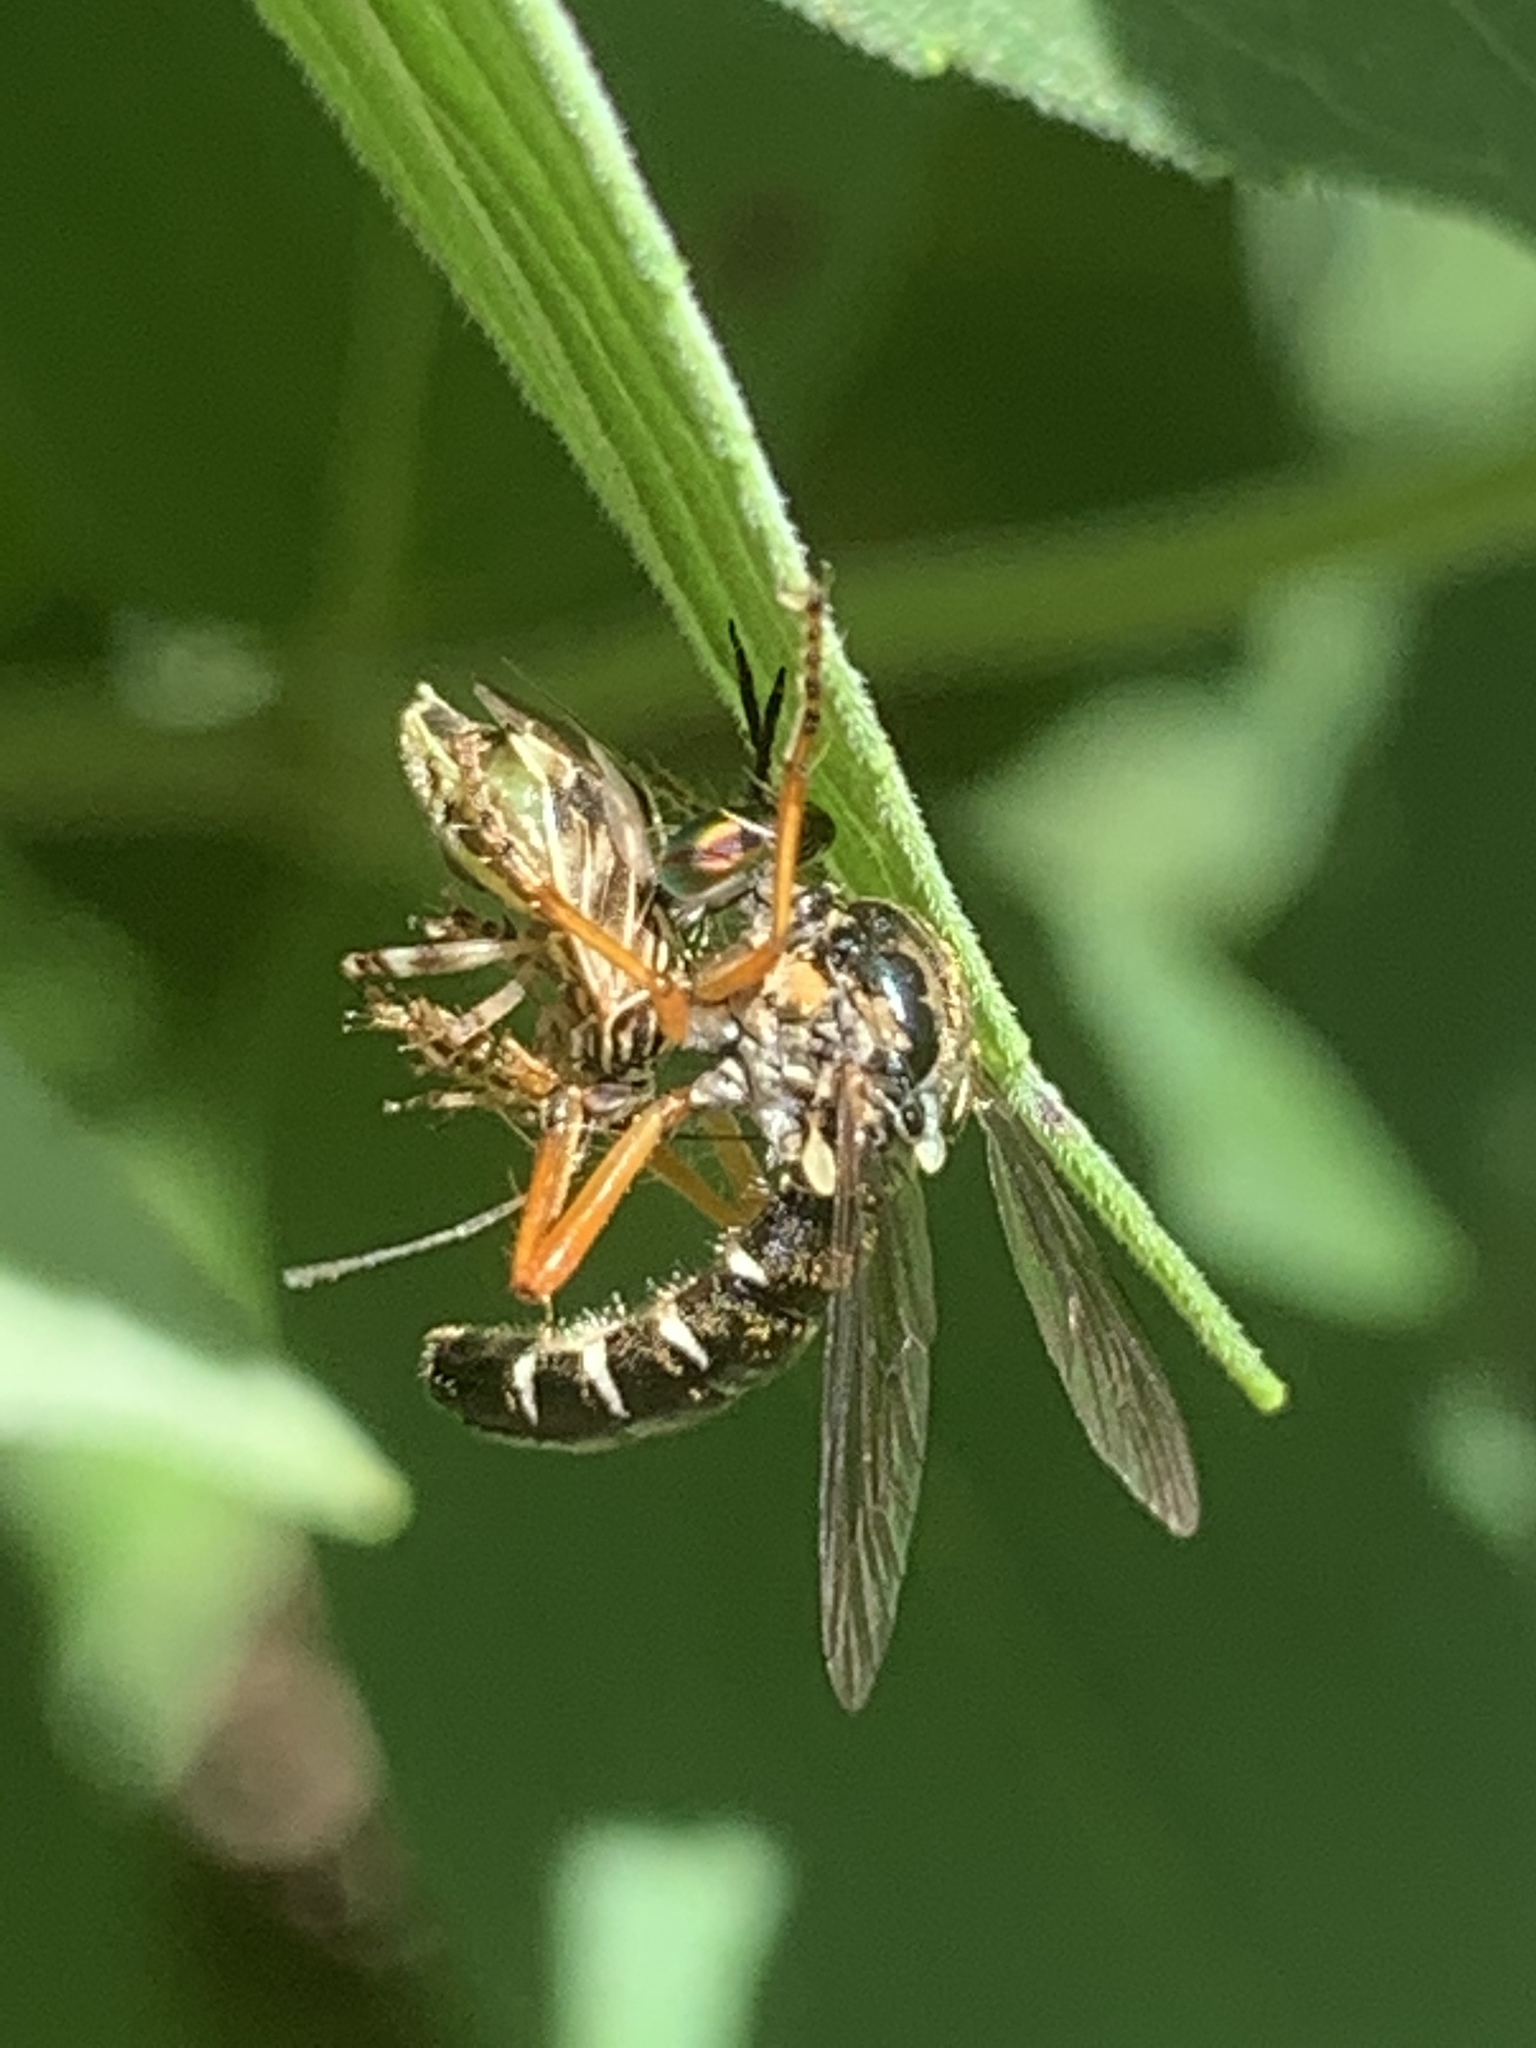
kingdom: Animalia
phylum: Arthropoda
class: Insecta
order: Diptera
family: Asilidae
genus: Taracticus
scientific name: Taracticus octopunctatus
